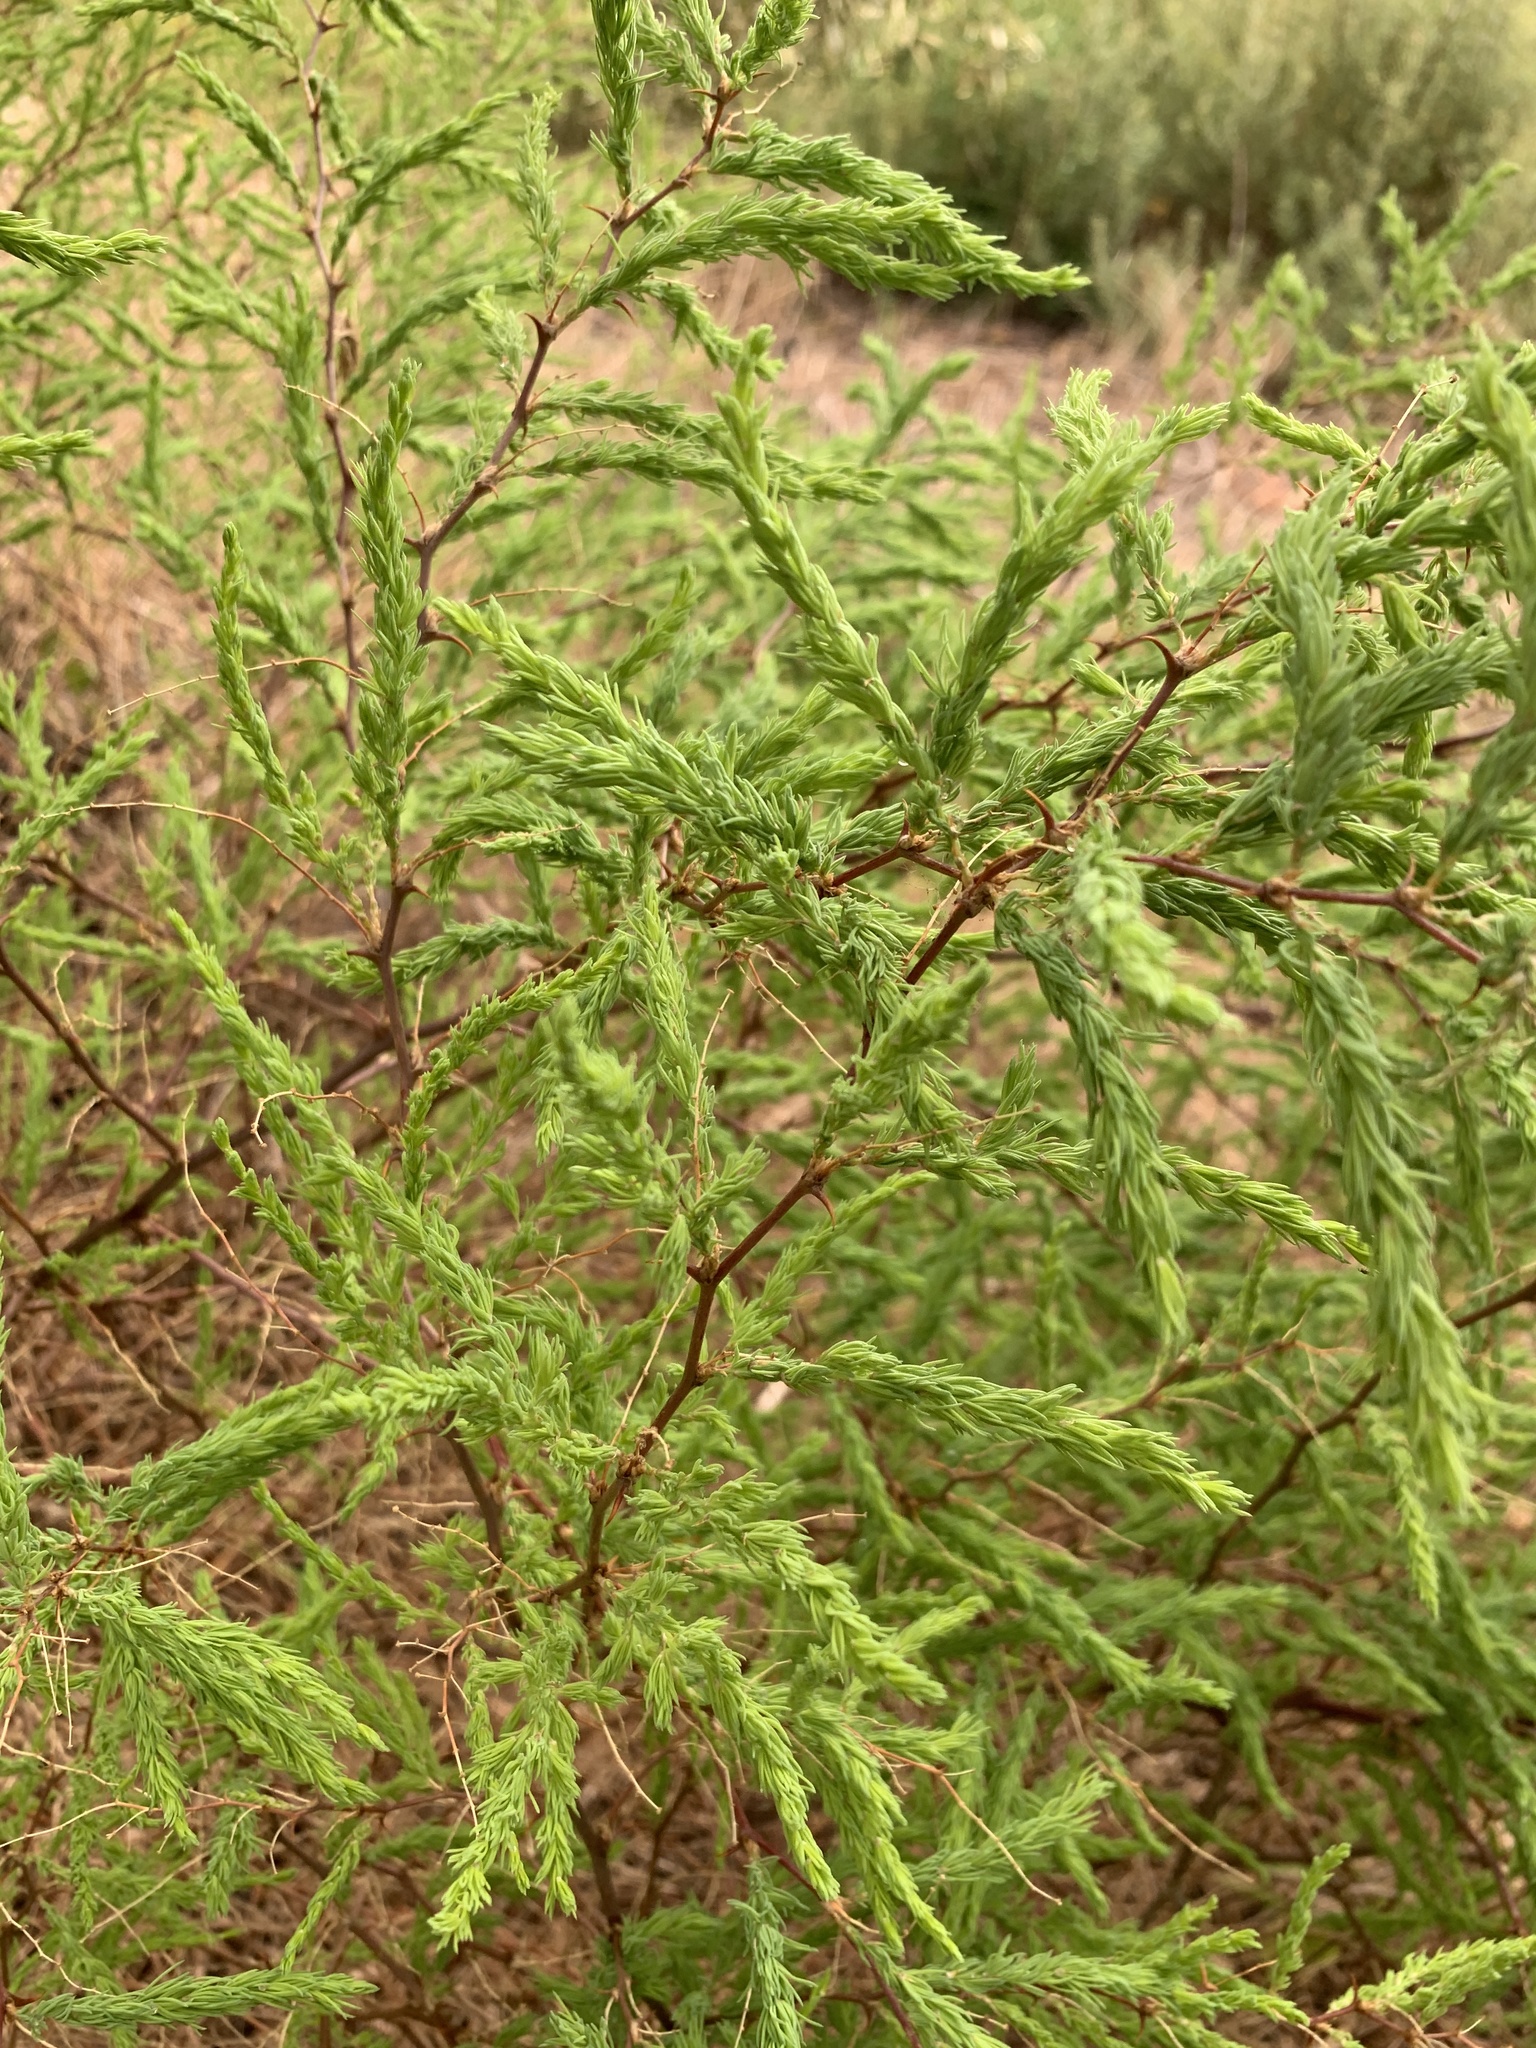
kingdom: Plantae
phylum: Tracheophyta
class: Liliopsida
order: Asparagales
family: Asparagaceae
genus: Asparagus
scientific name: Asparagus rubicundus
